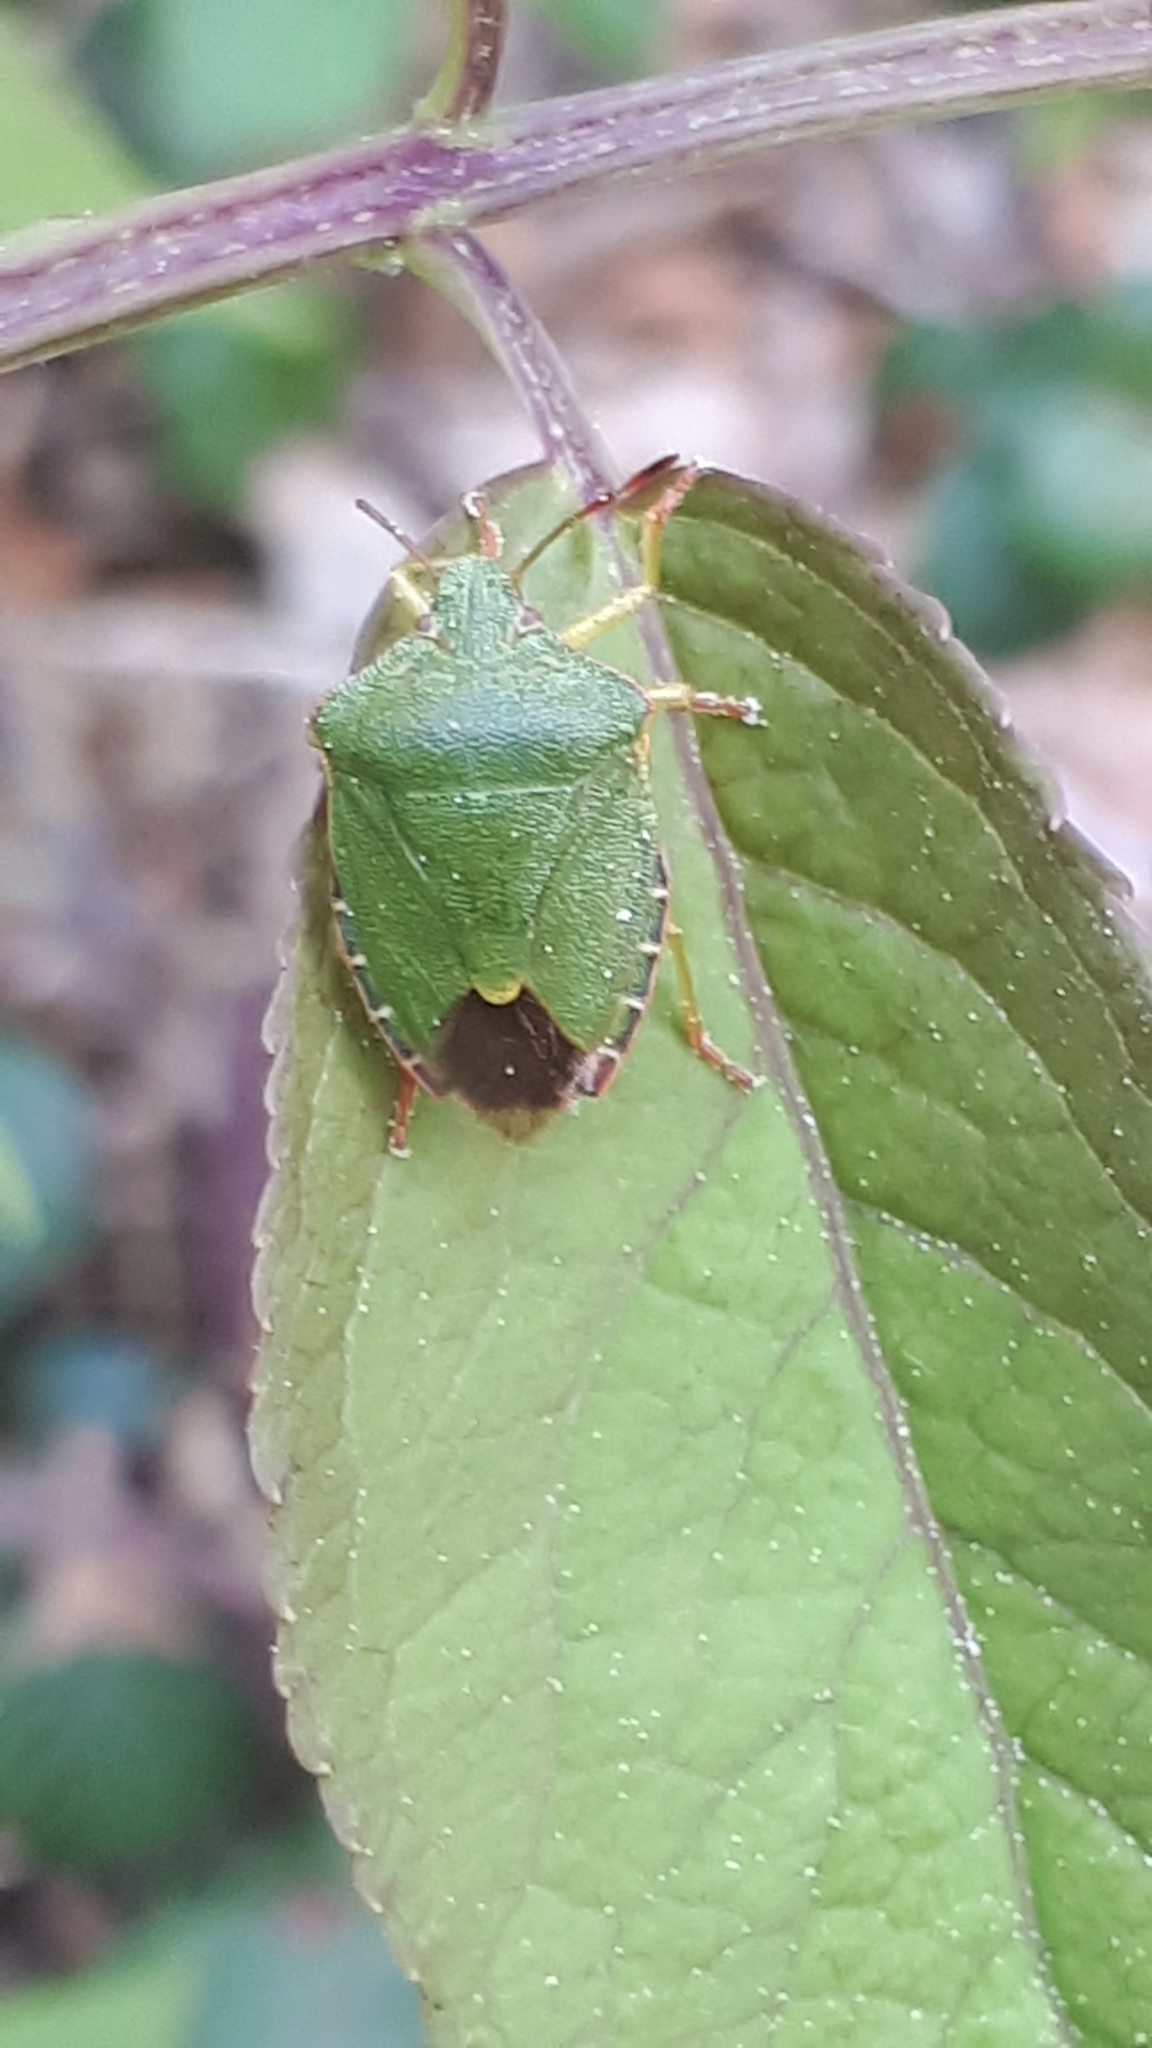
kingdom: Animalia
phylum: Arthropoda
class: Insecta
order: Hemiptera
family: Pentatomidae
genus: Palomena
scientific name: Palomena prasina
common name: Green shieldbug
